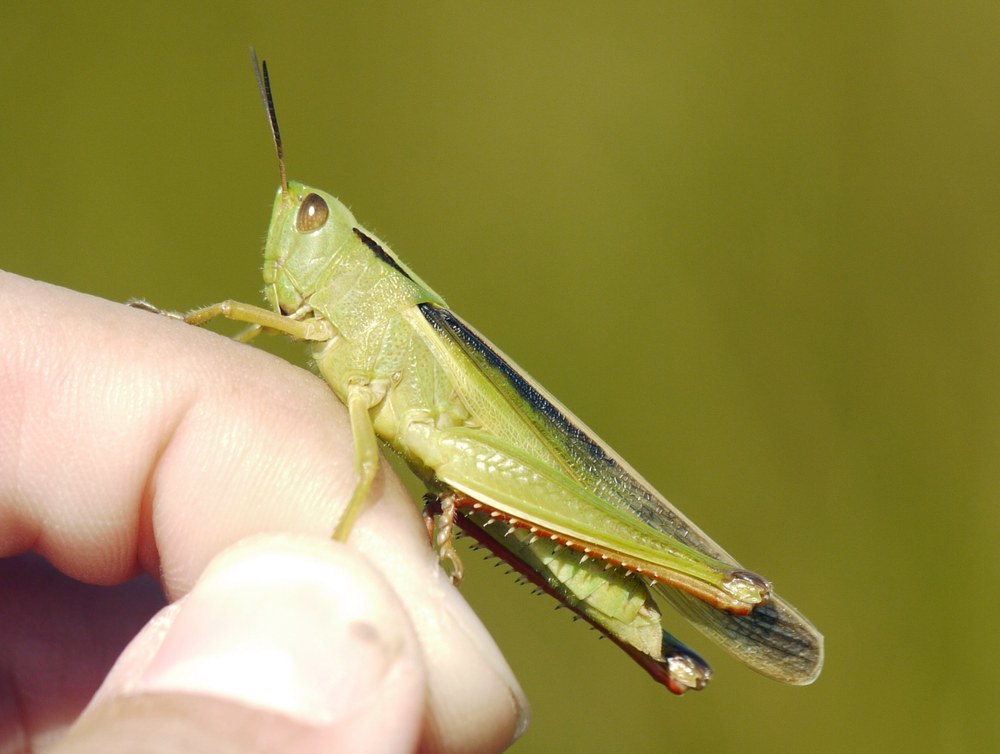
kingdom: Animalia
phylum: Arthropoda
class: Insecta
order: Orthoptera
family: Acrididae
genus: Paracinema
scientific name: Paracinema tricolor
